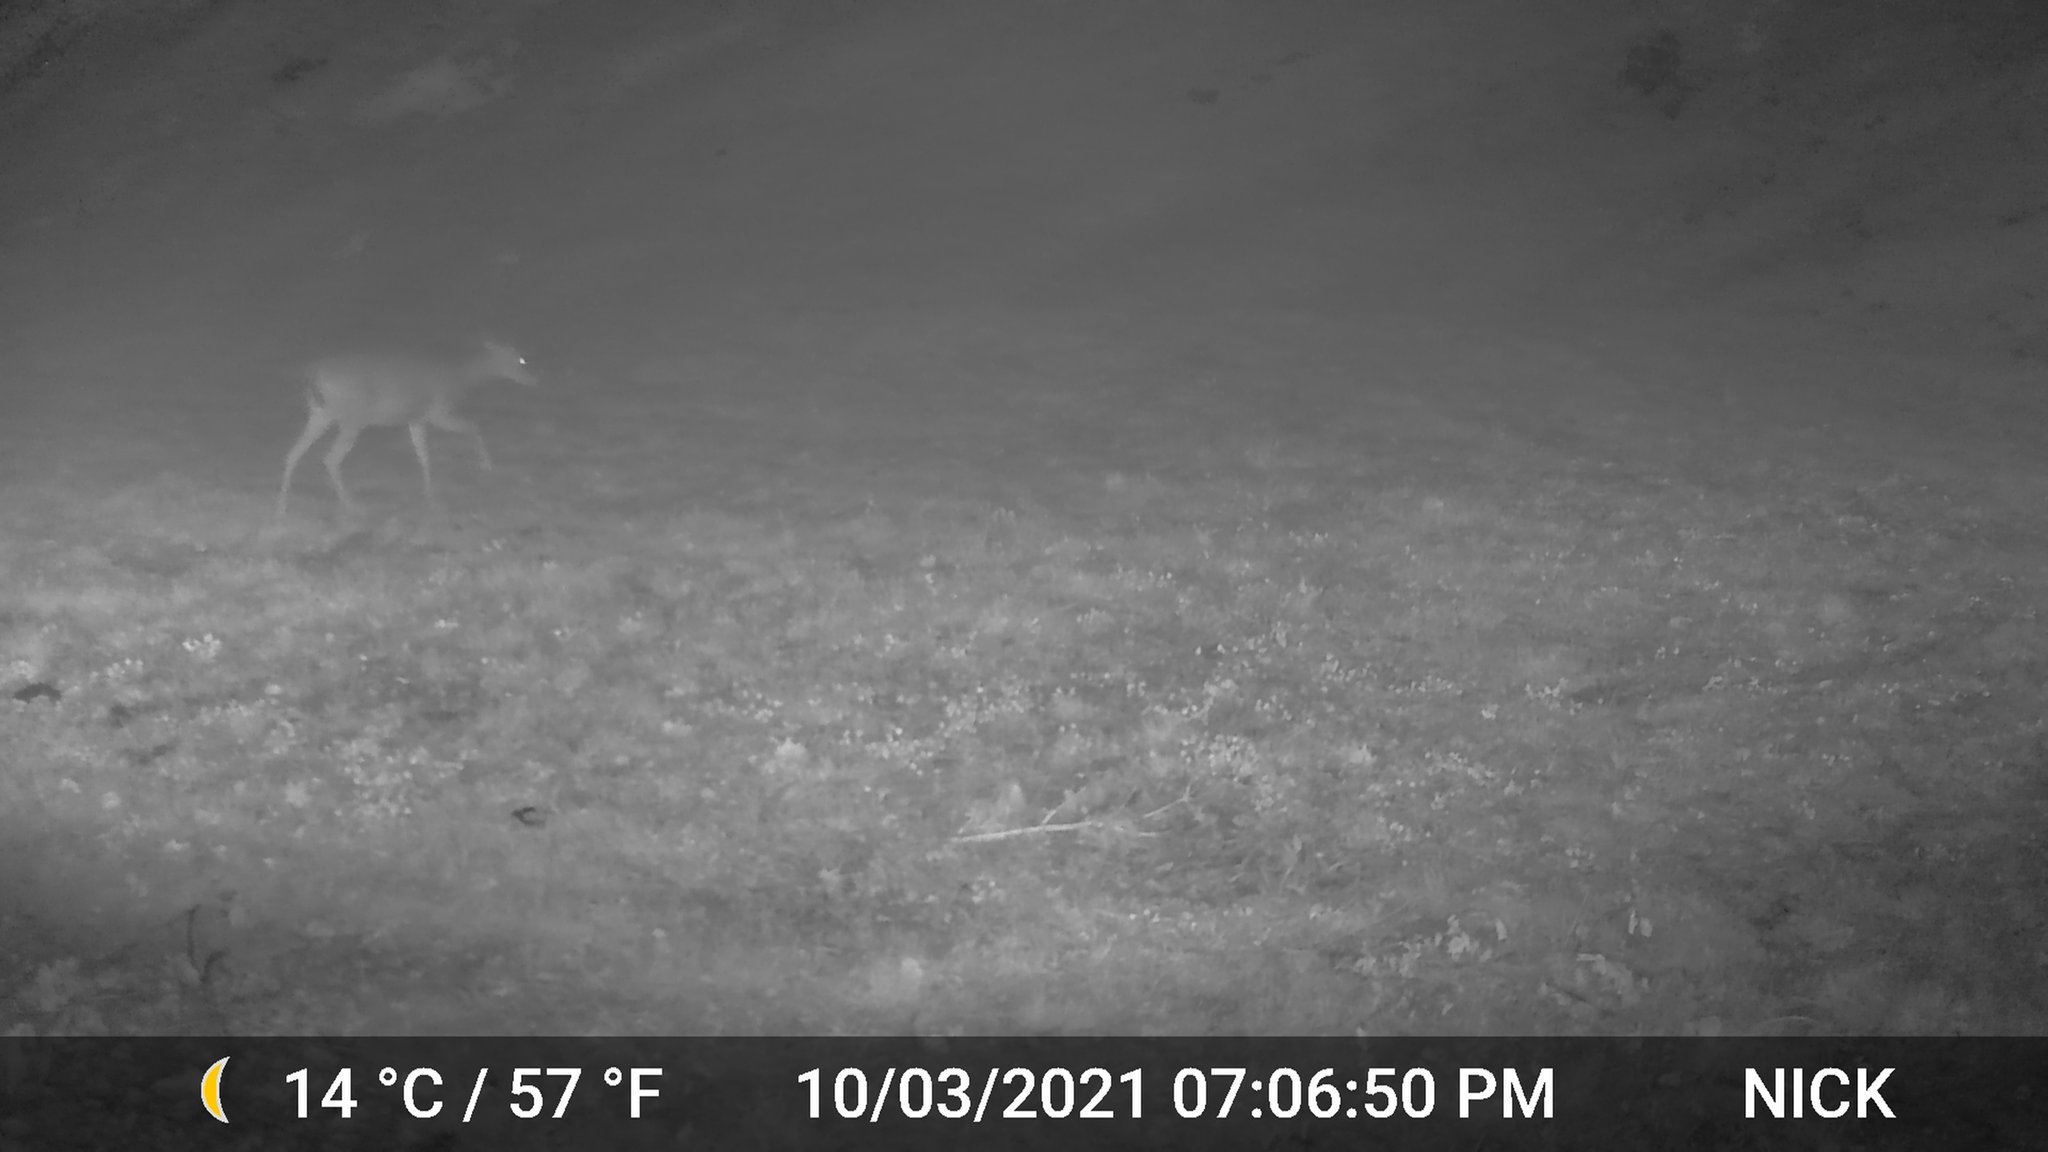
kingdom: Animalia
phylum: Chordata
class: Mammalia
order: Artiodactyla
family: Cervidae
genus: Odocoileus
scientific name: Odocoileus virginianus
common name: White-tailed deer
